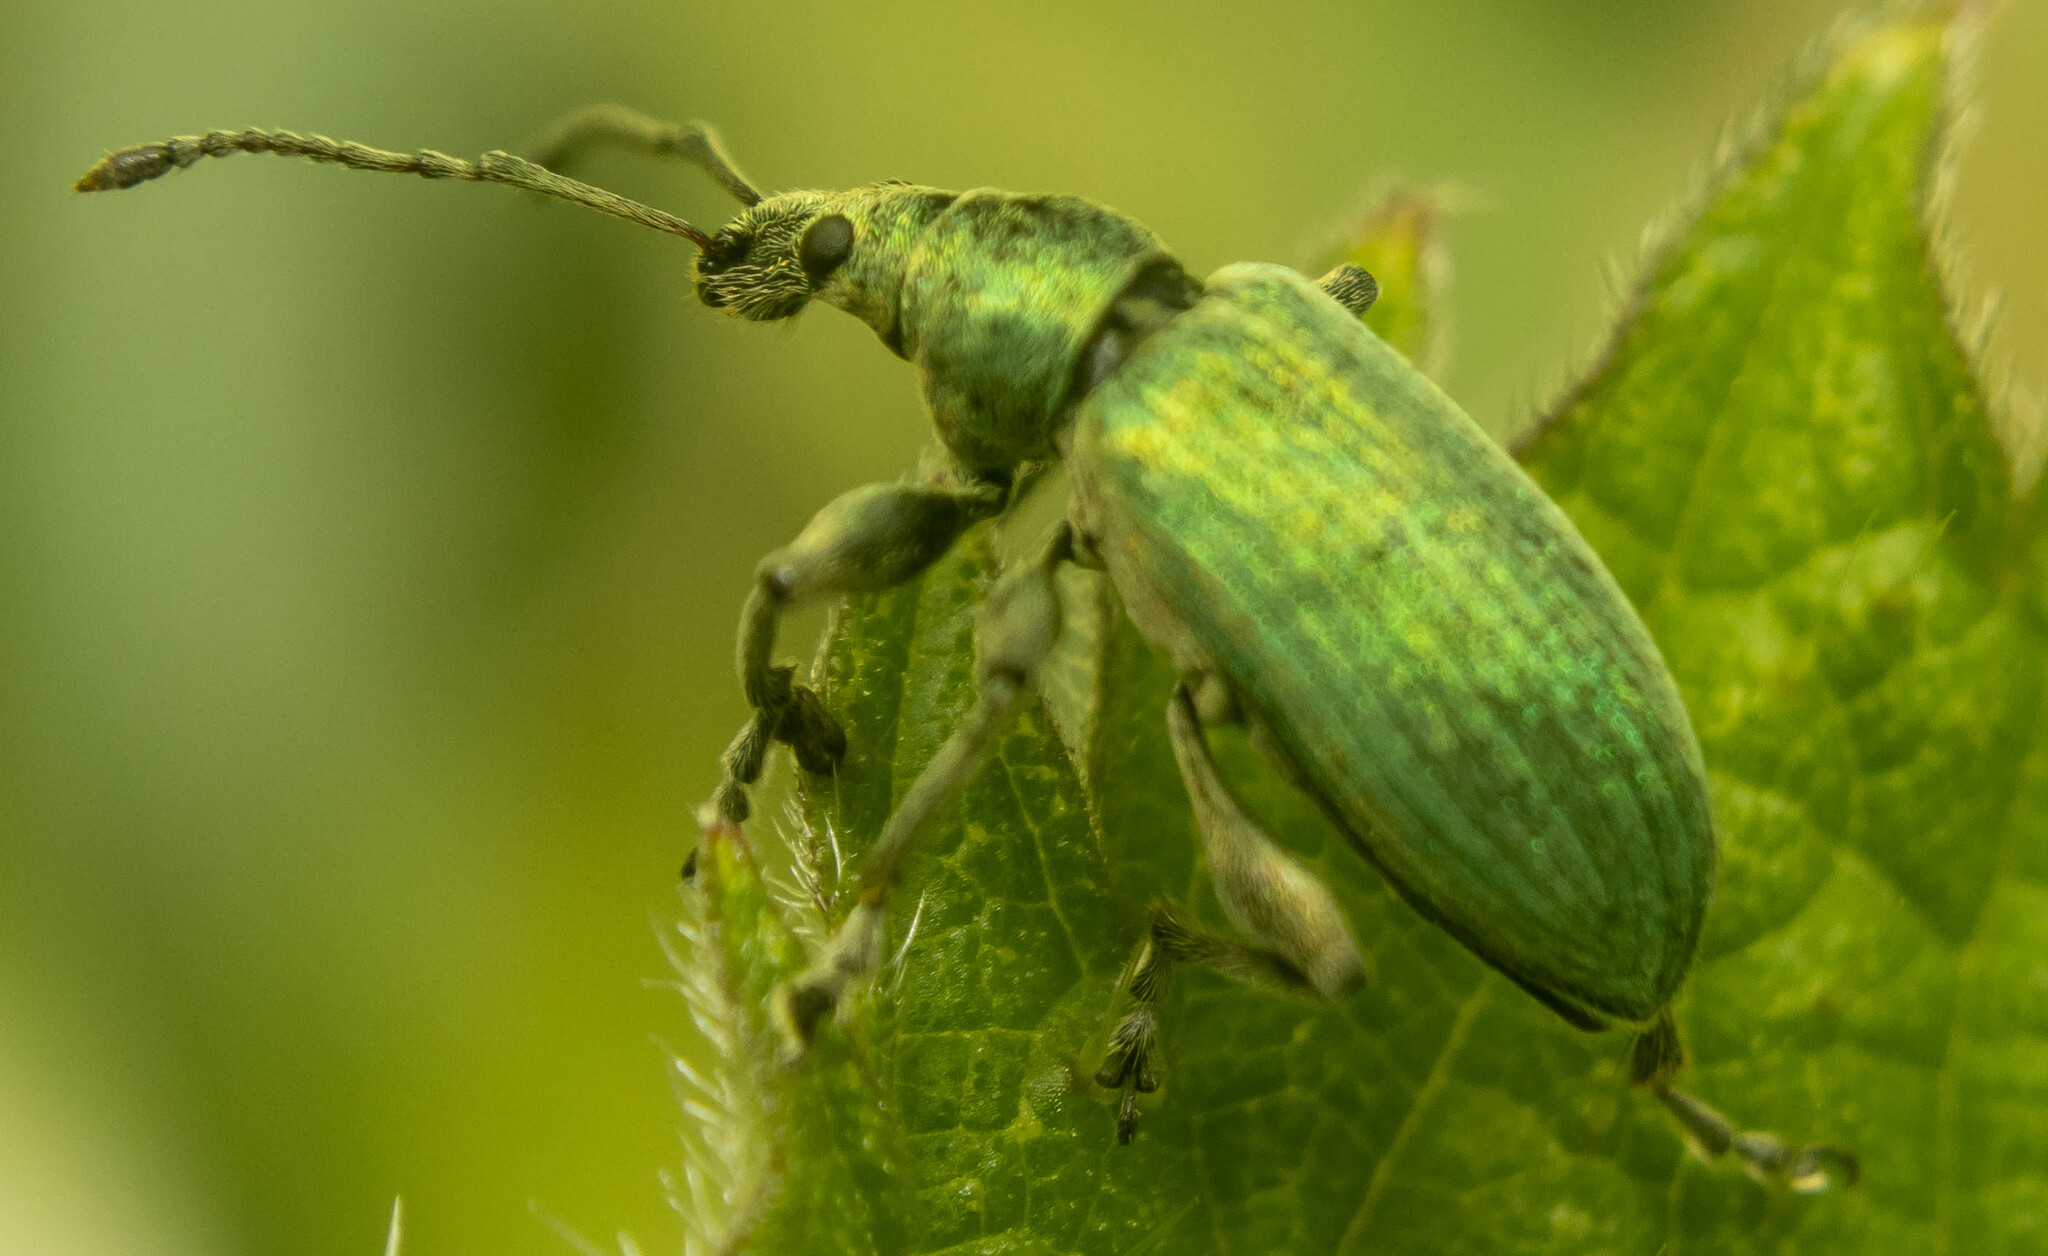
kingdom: Animalia
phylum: Arthropoda
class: Insecta
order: Coleoptera
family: Curculionidae
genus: Phyllobius
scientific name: Phyllobius pomaceus
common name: Green nettle weevil
